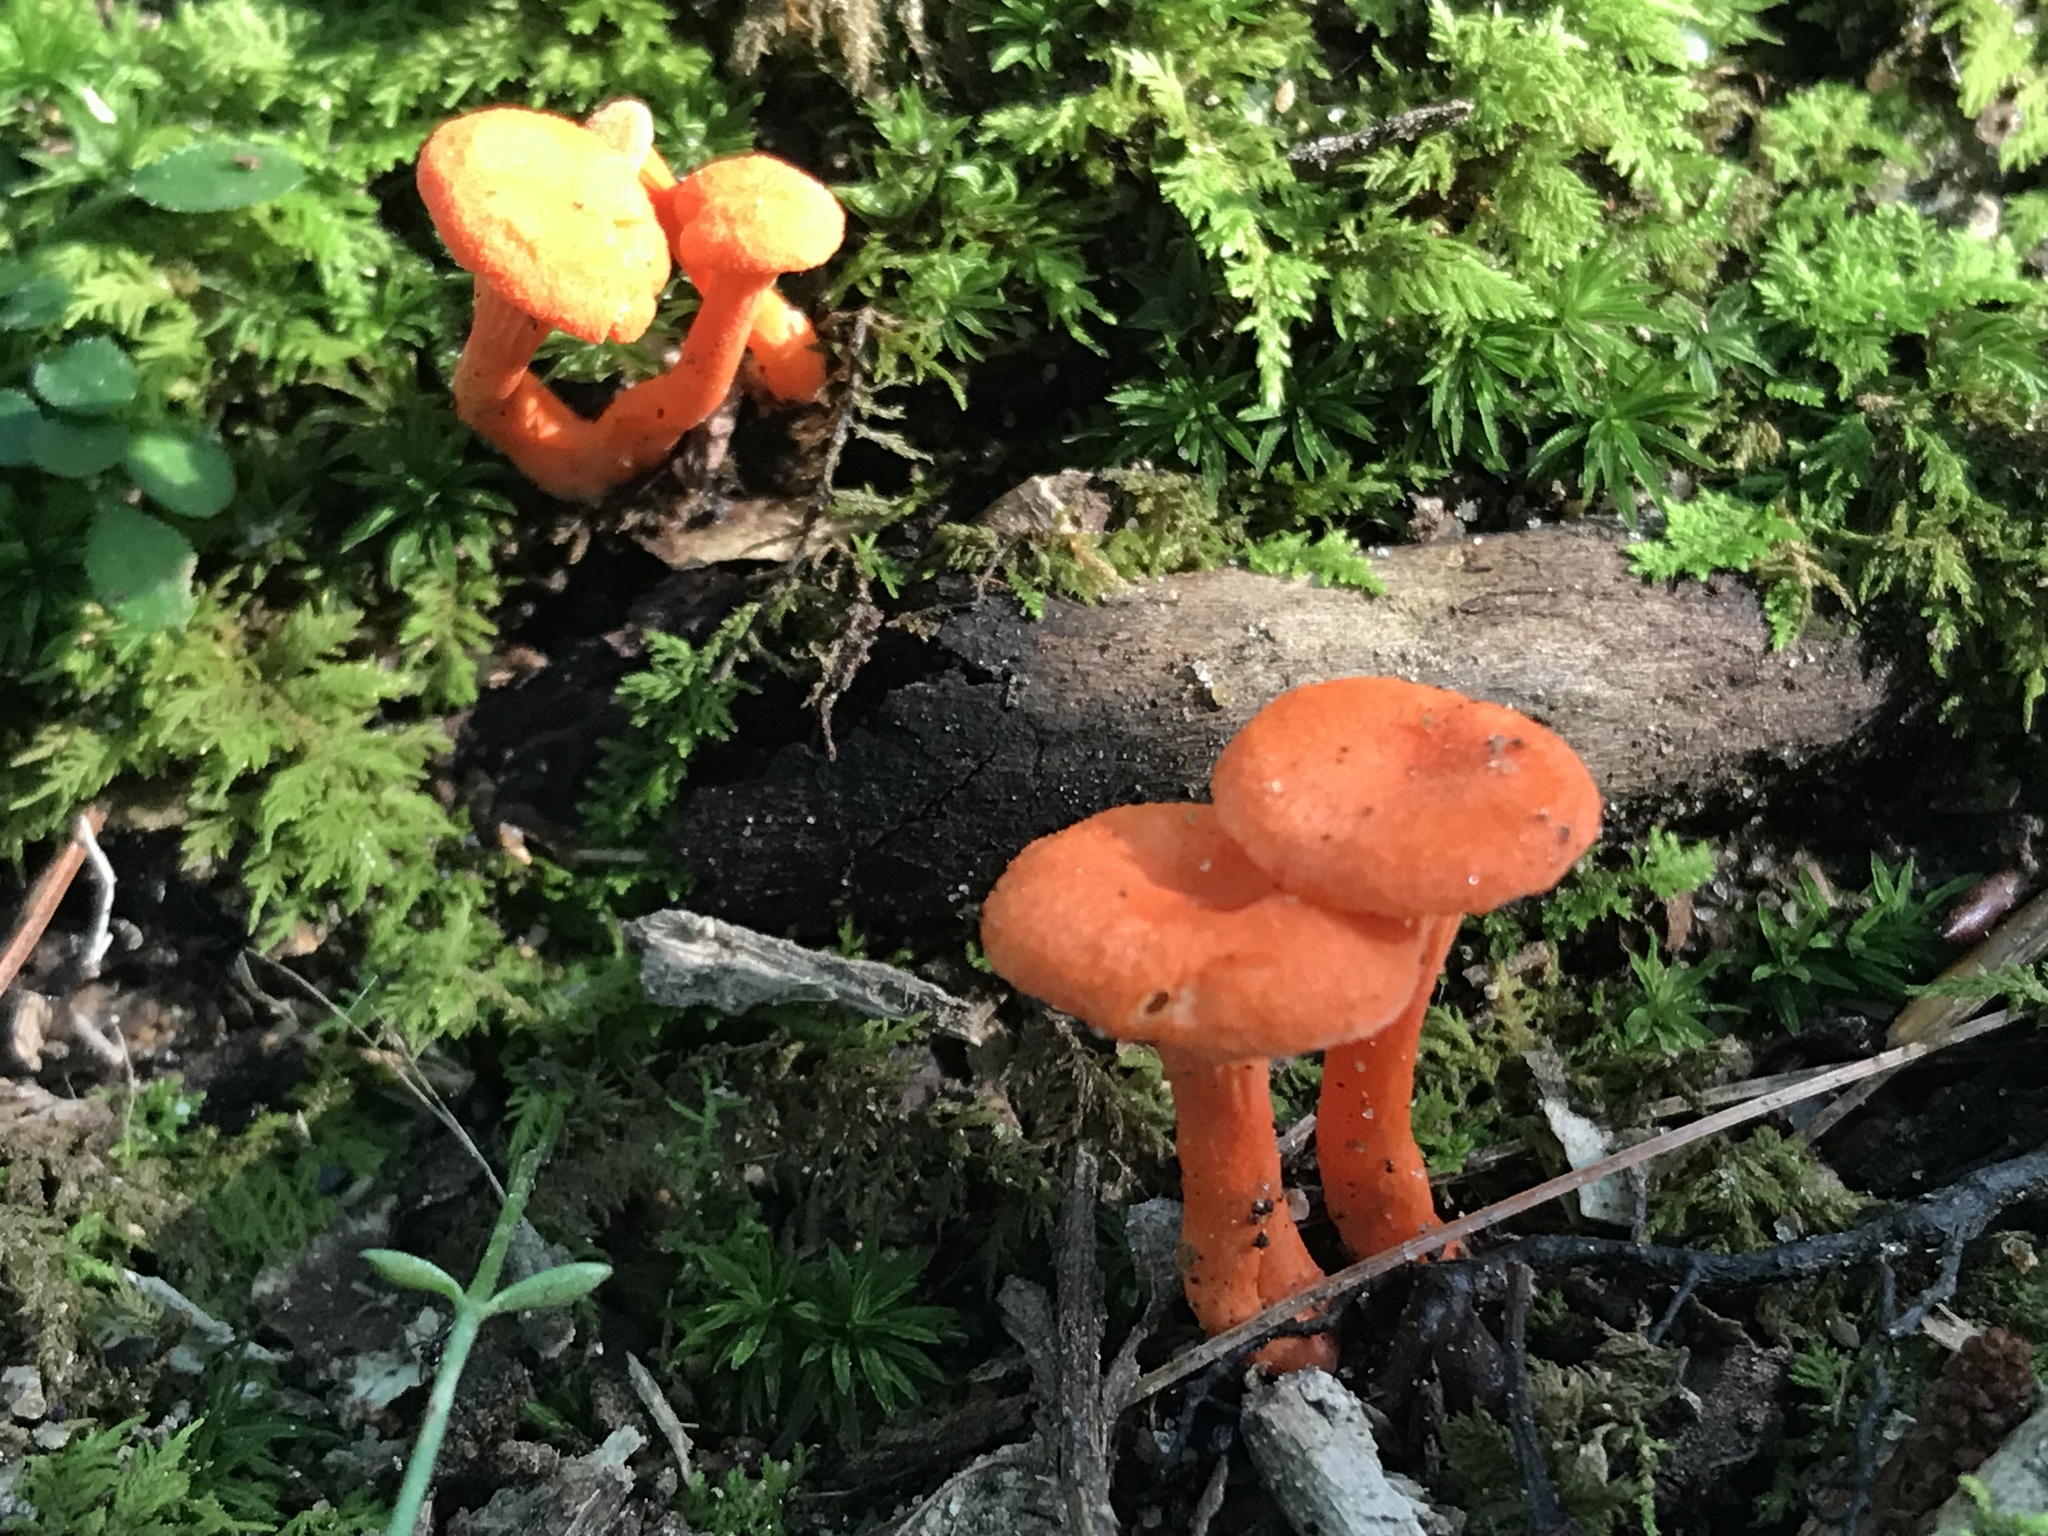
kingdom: Fungi
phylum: Basidiomycota
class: Agaricomycetes
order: Cantharellales
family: Hydnaceae
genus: Cantharellus
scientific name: Cantharellus cinnabarinus
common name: Cinnabar chanterelle
